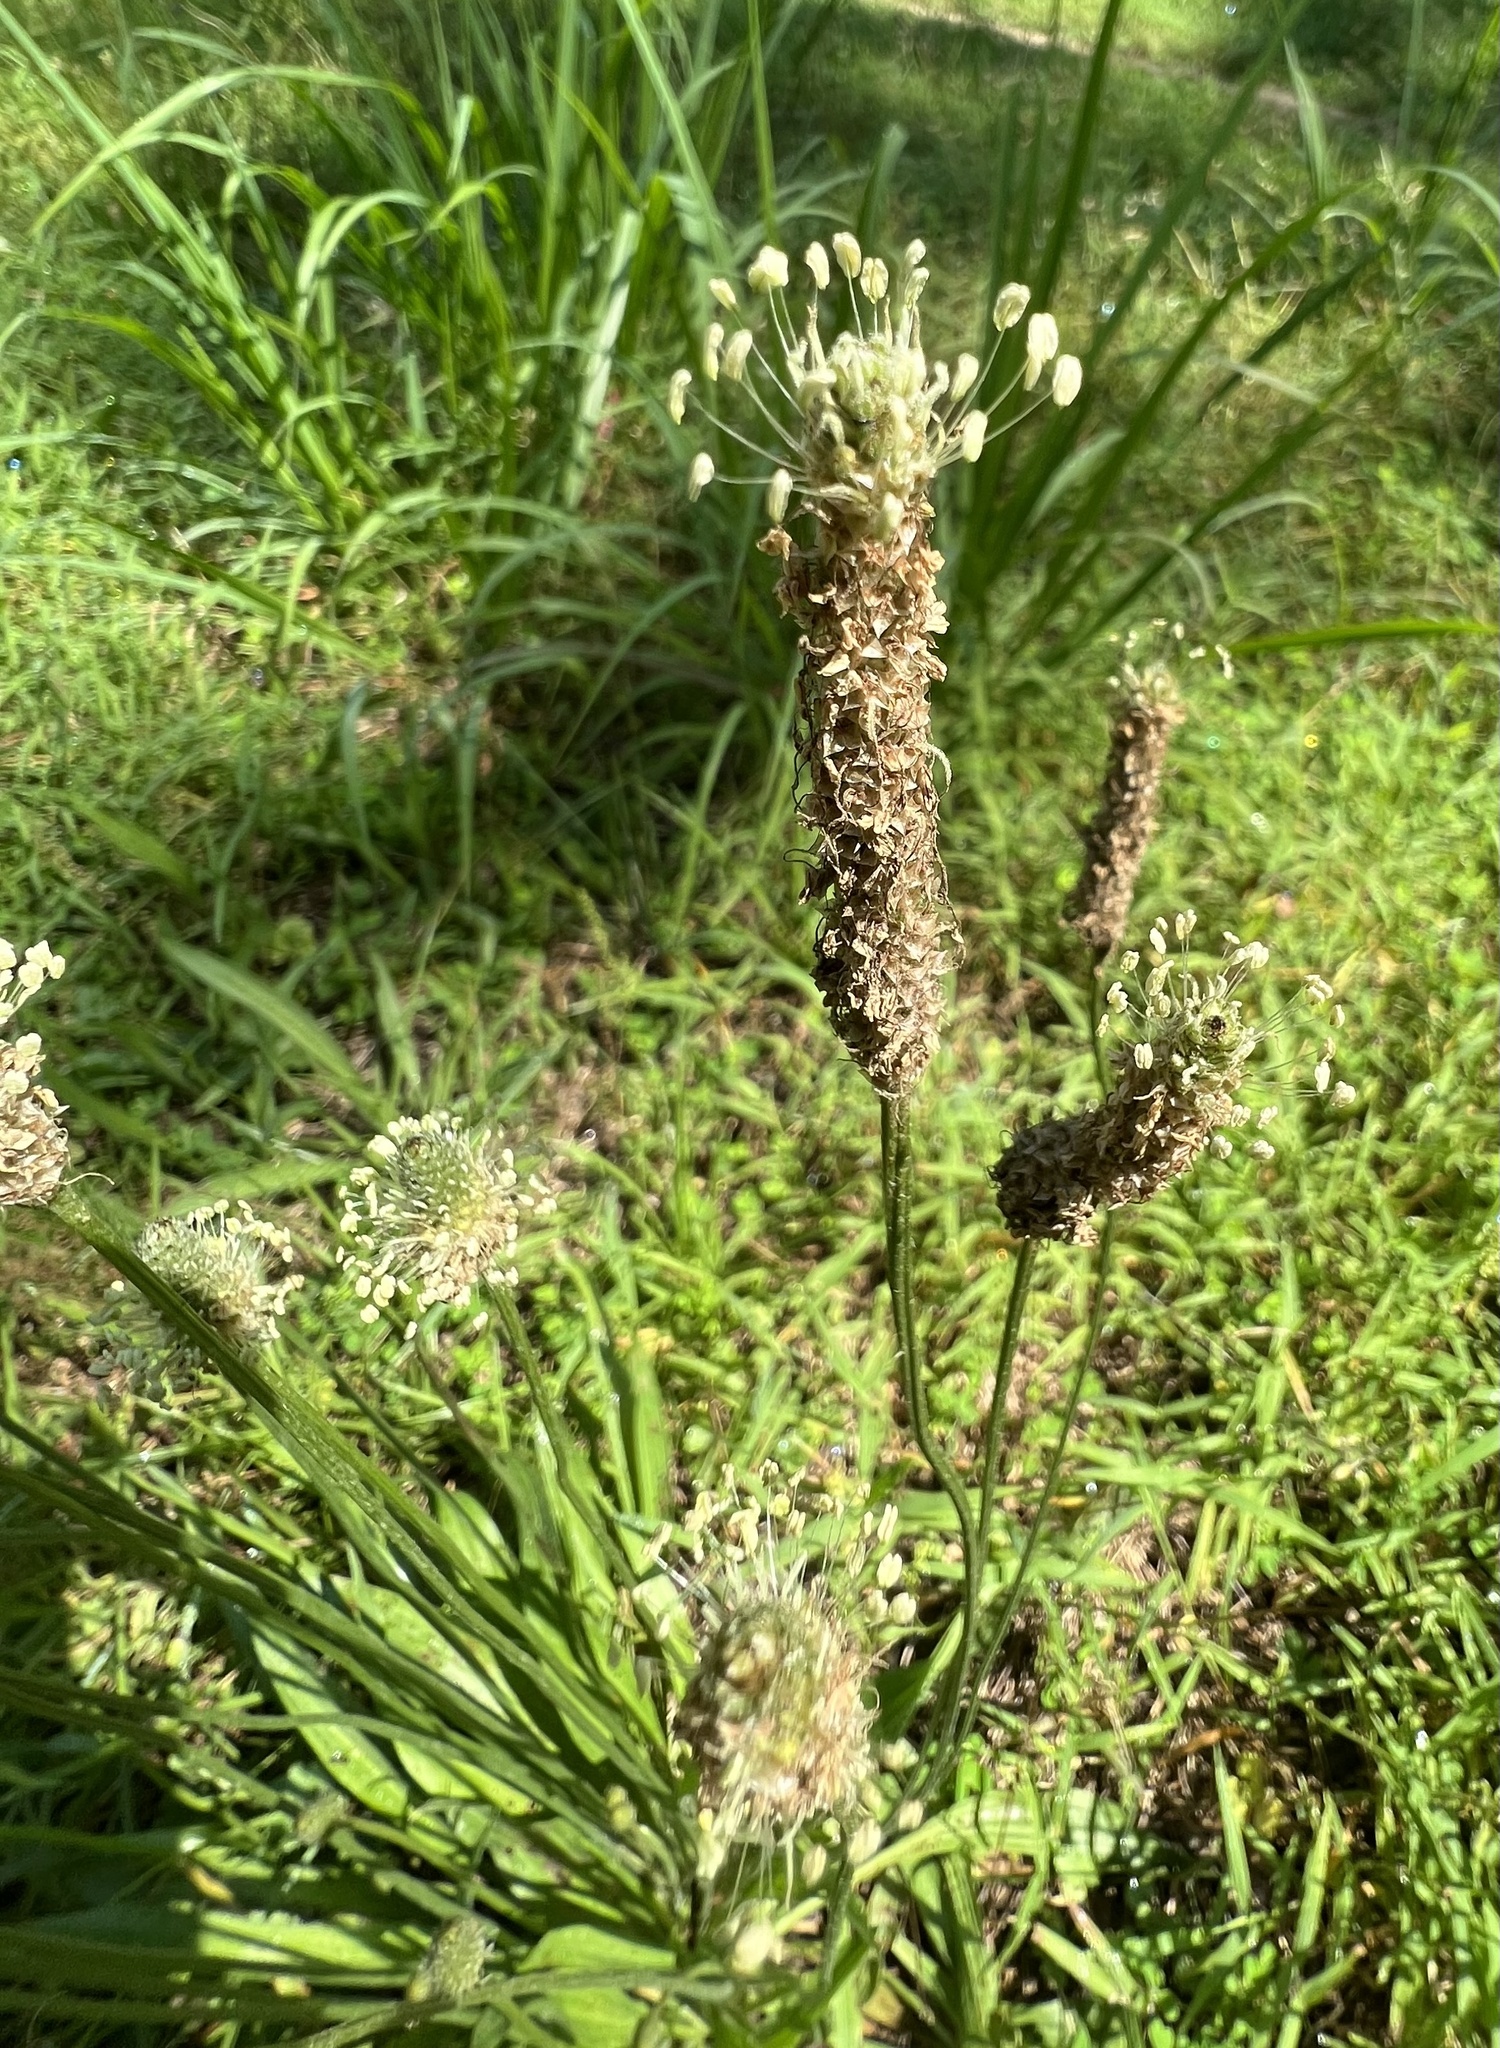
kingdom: Plantae
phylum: Tracheophyta
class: Magnoliopsida
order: Lamiales
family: Plantaginaceae
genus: Plantago
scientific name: Plantago lanceolata
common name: Ribwort plantain
